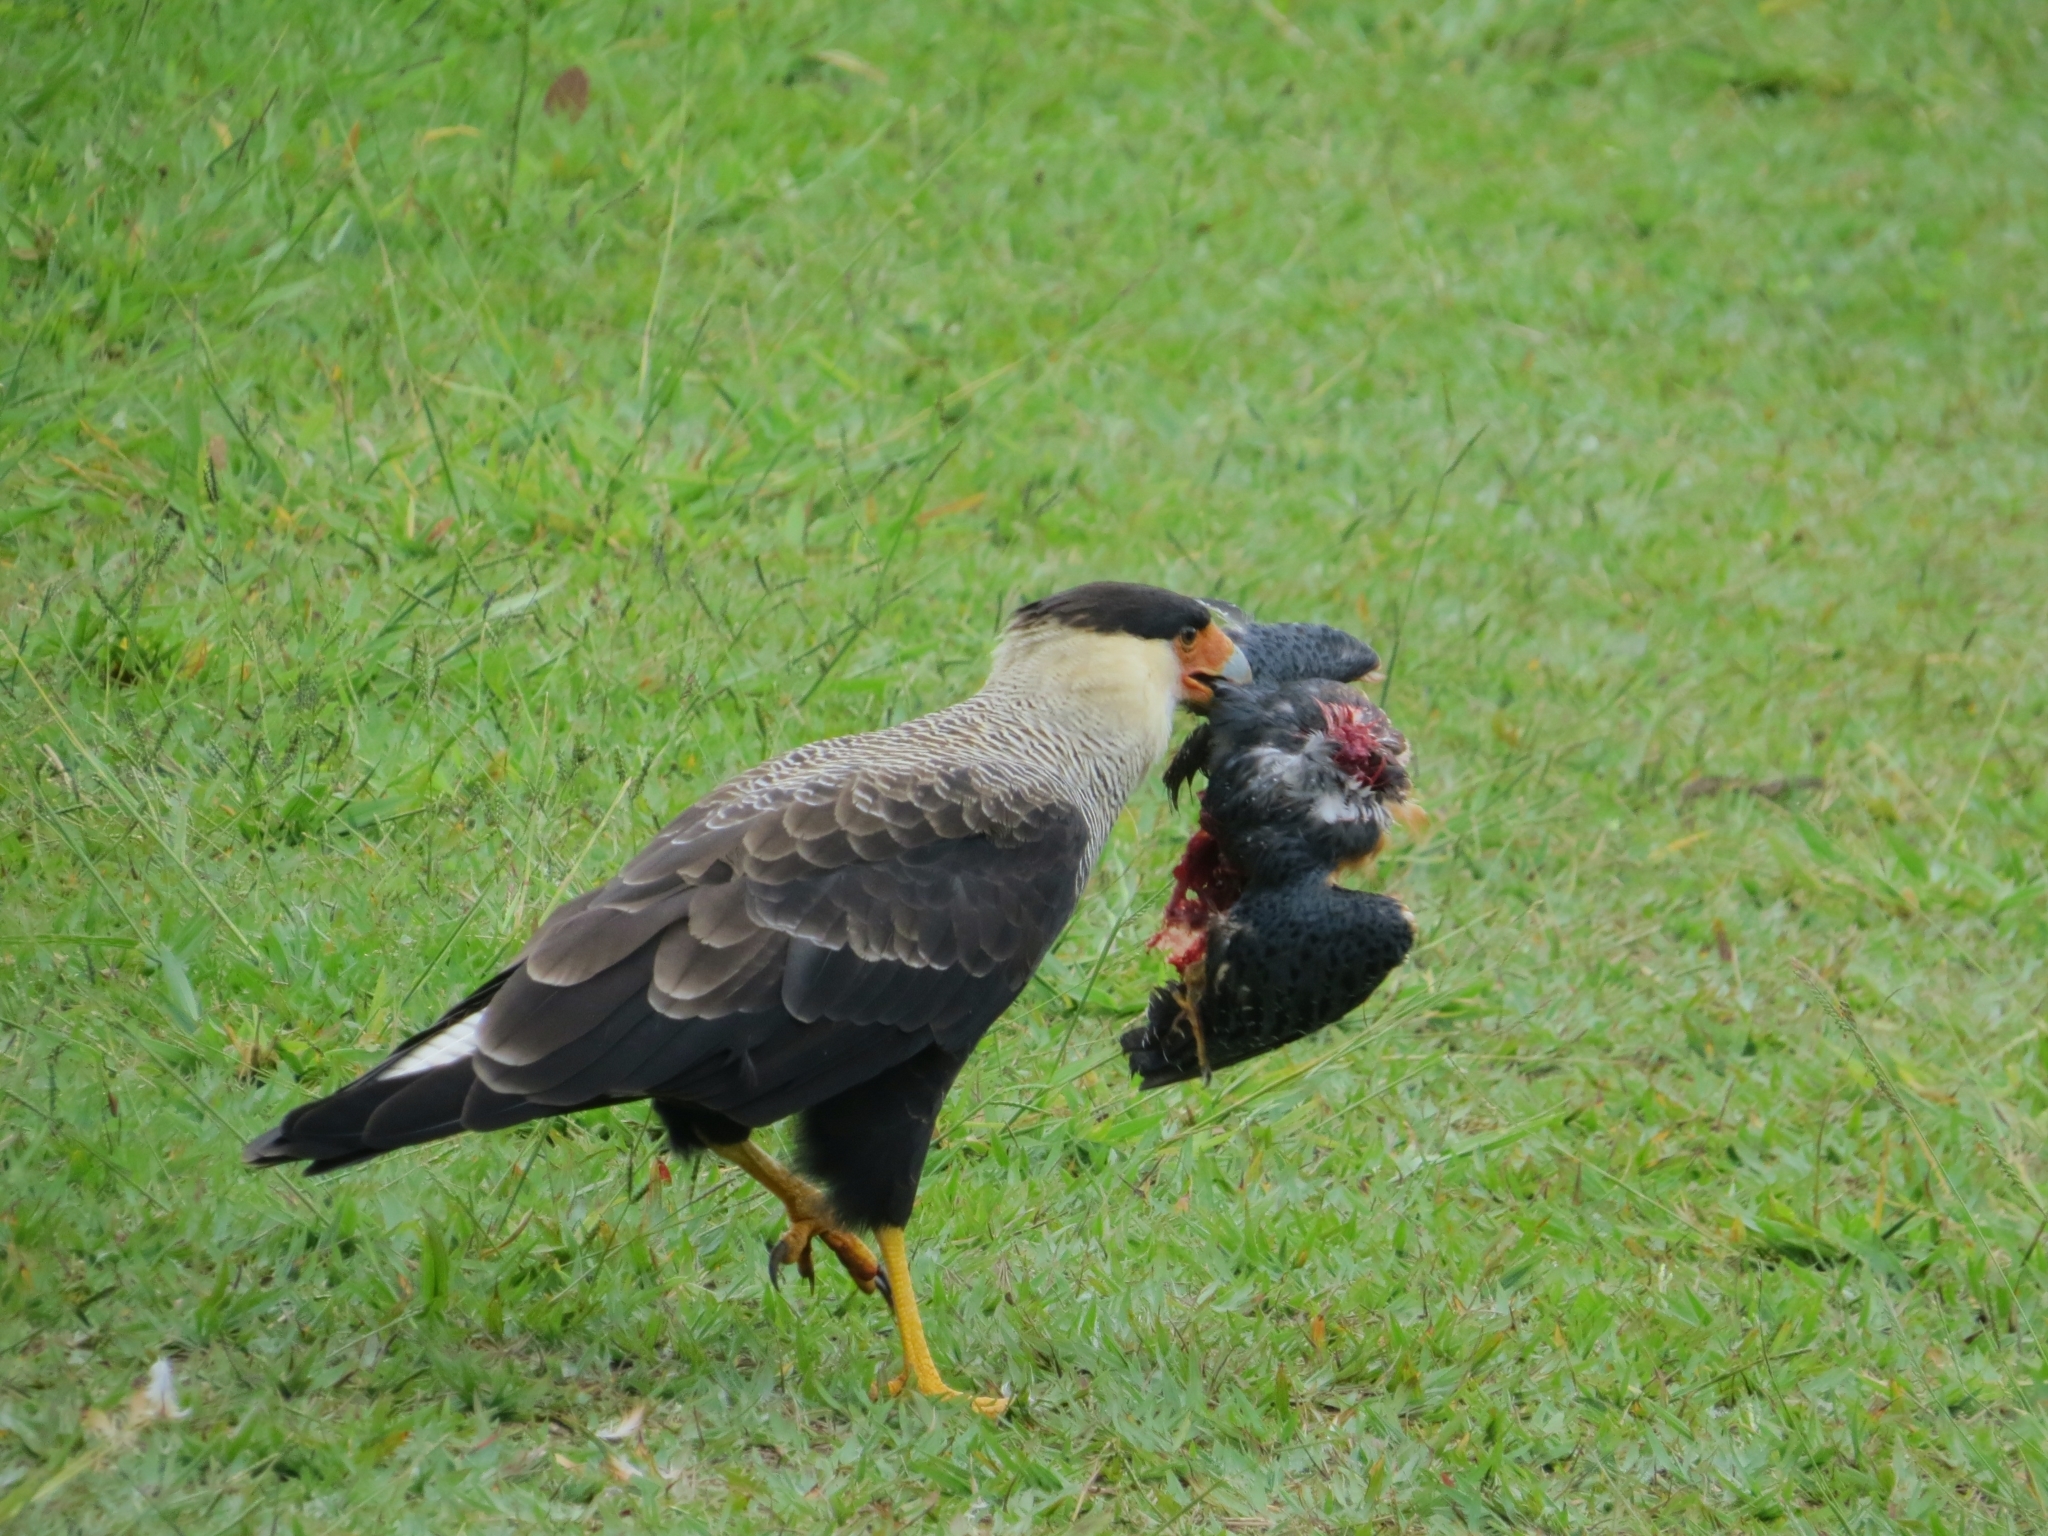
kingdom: Animalia
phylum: Chordata
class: Aves
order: Coraciiformes
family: Alcedinidae
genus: Megaceryle
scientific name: Megaceryle torquata
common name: Ringed kingfisher
